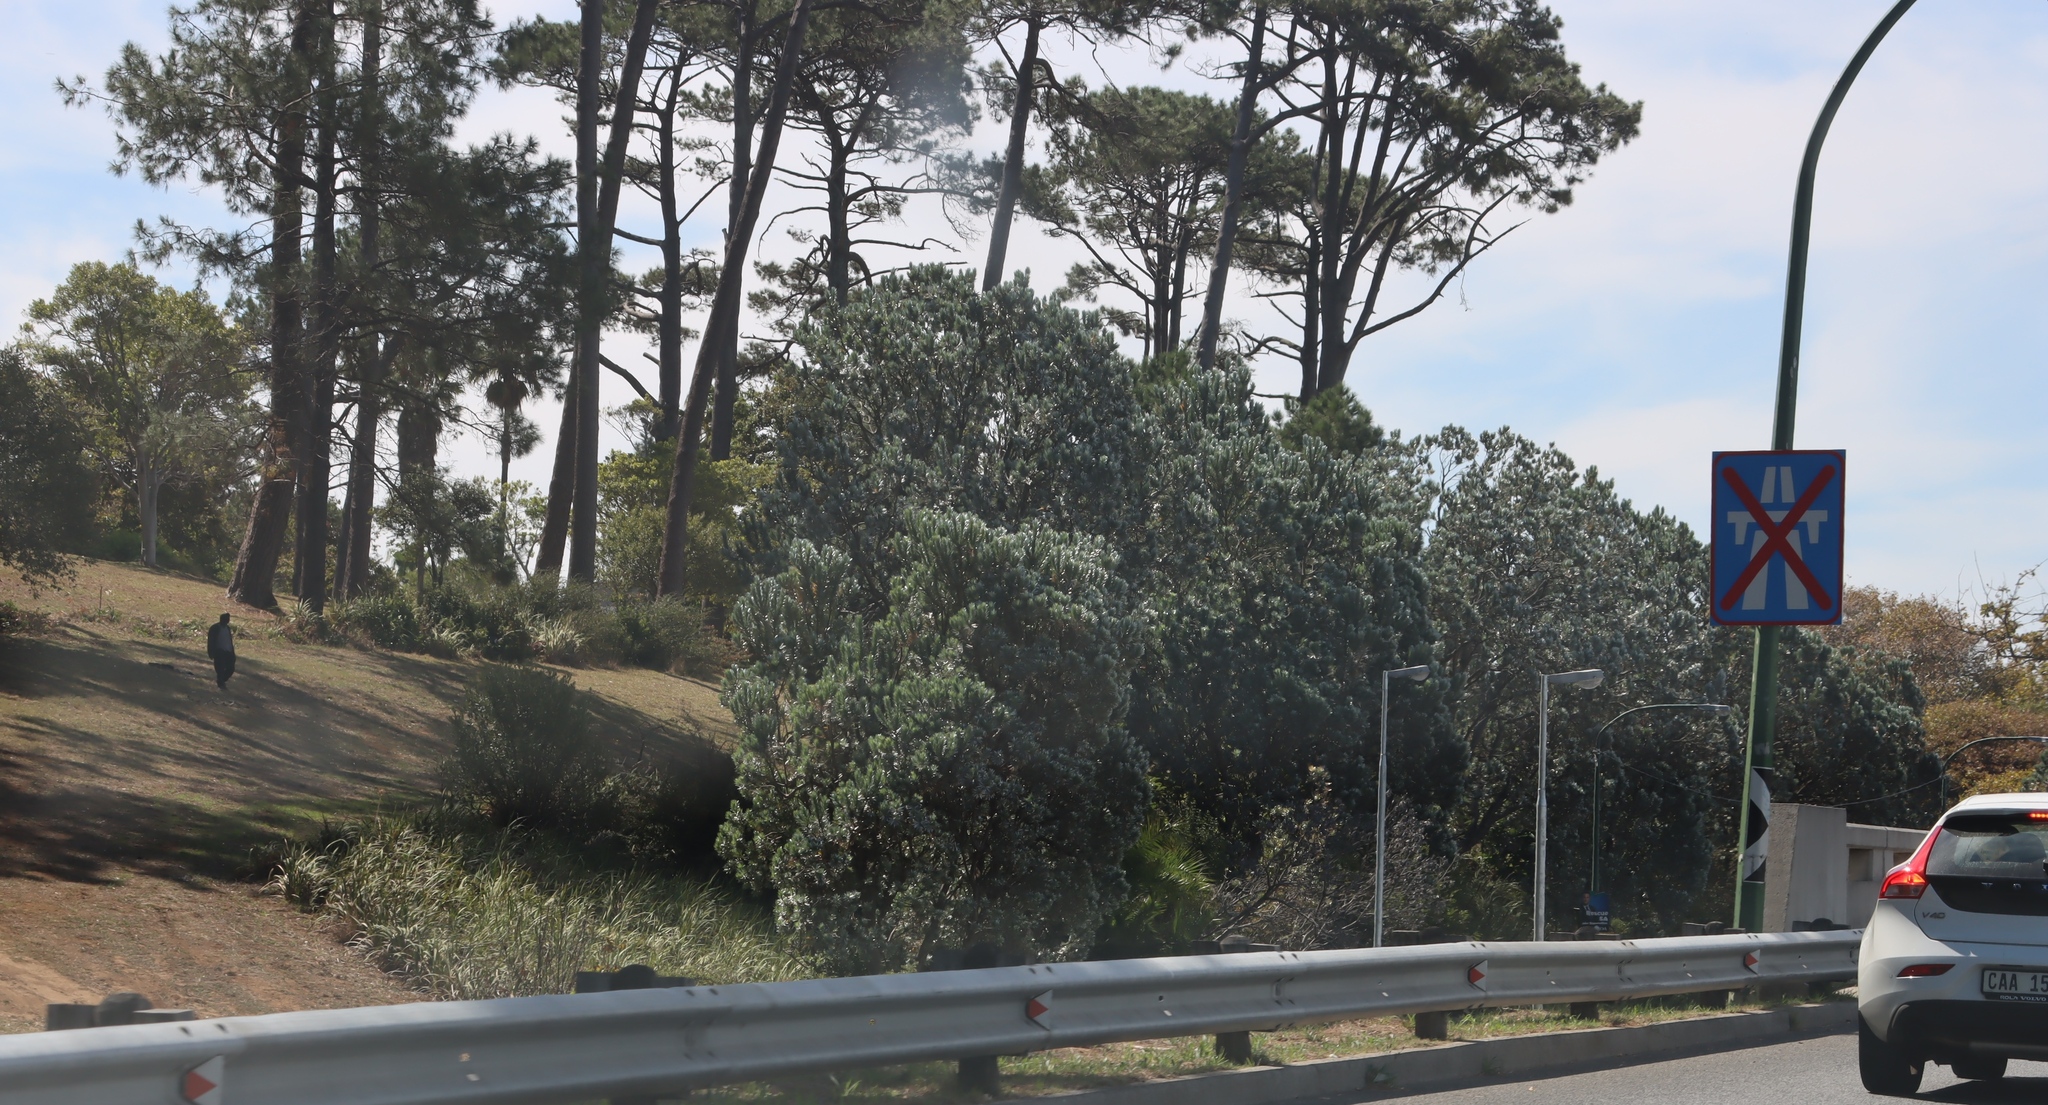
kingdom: Plantae
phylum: Tracheophyta
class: Magnoliopsida
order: Proteales
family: Proteaceae
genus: Leucadendron
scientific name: Leucadendron argenteum
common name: Cape silver tree
